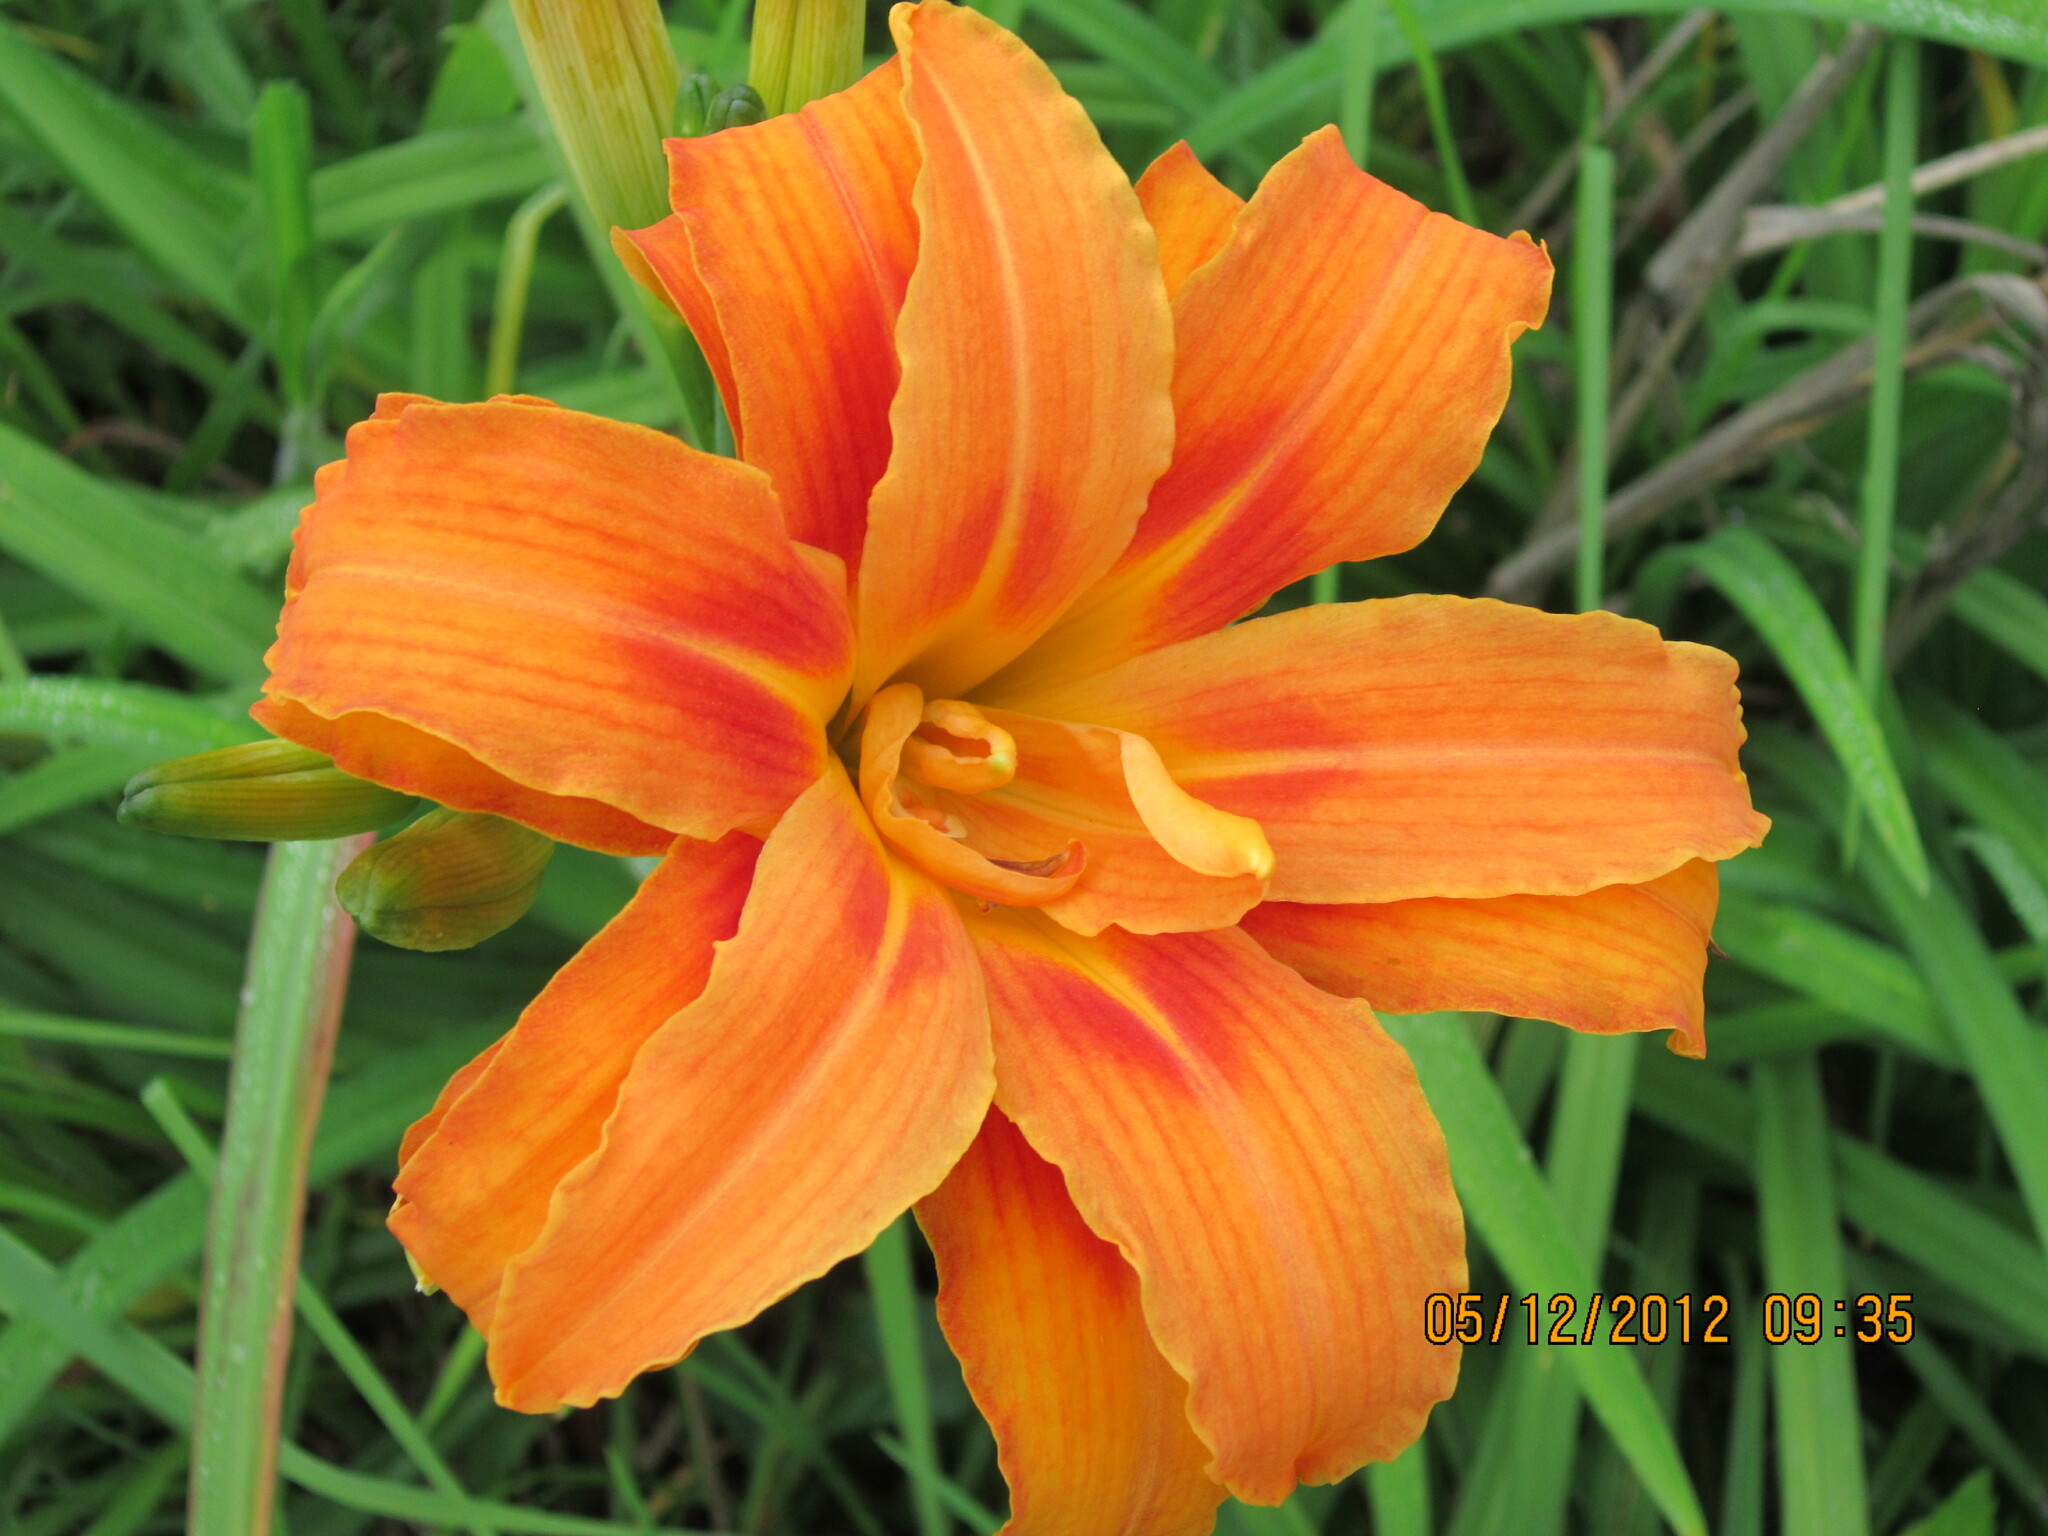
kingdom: Plantae
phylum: Tracheophyta
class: Liliopsida
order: Asparagales
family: Asphodelaceae
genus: Hemerocallis
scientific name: Hemerocallis fulva
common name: Orange day-lily
